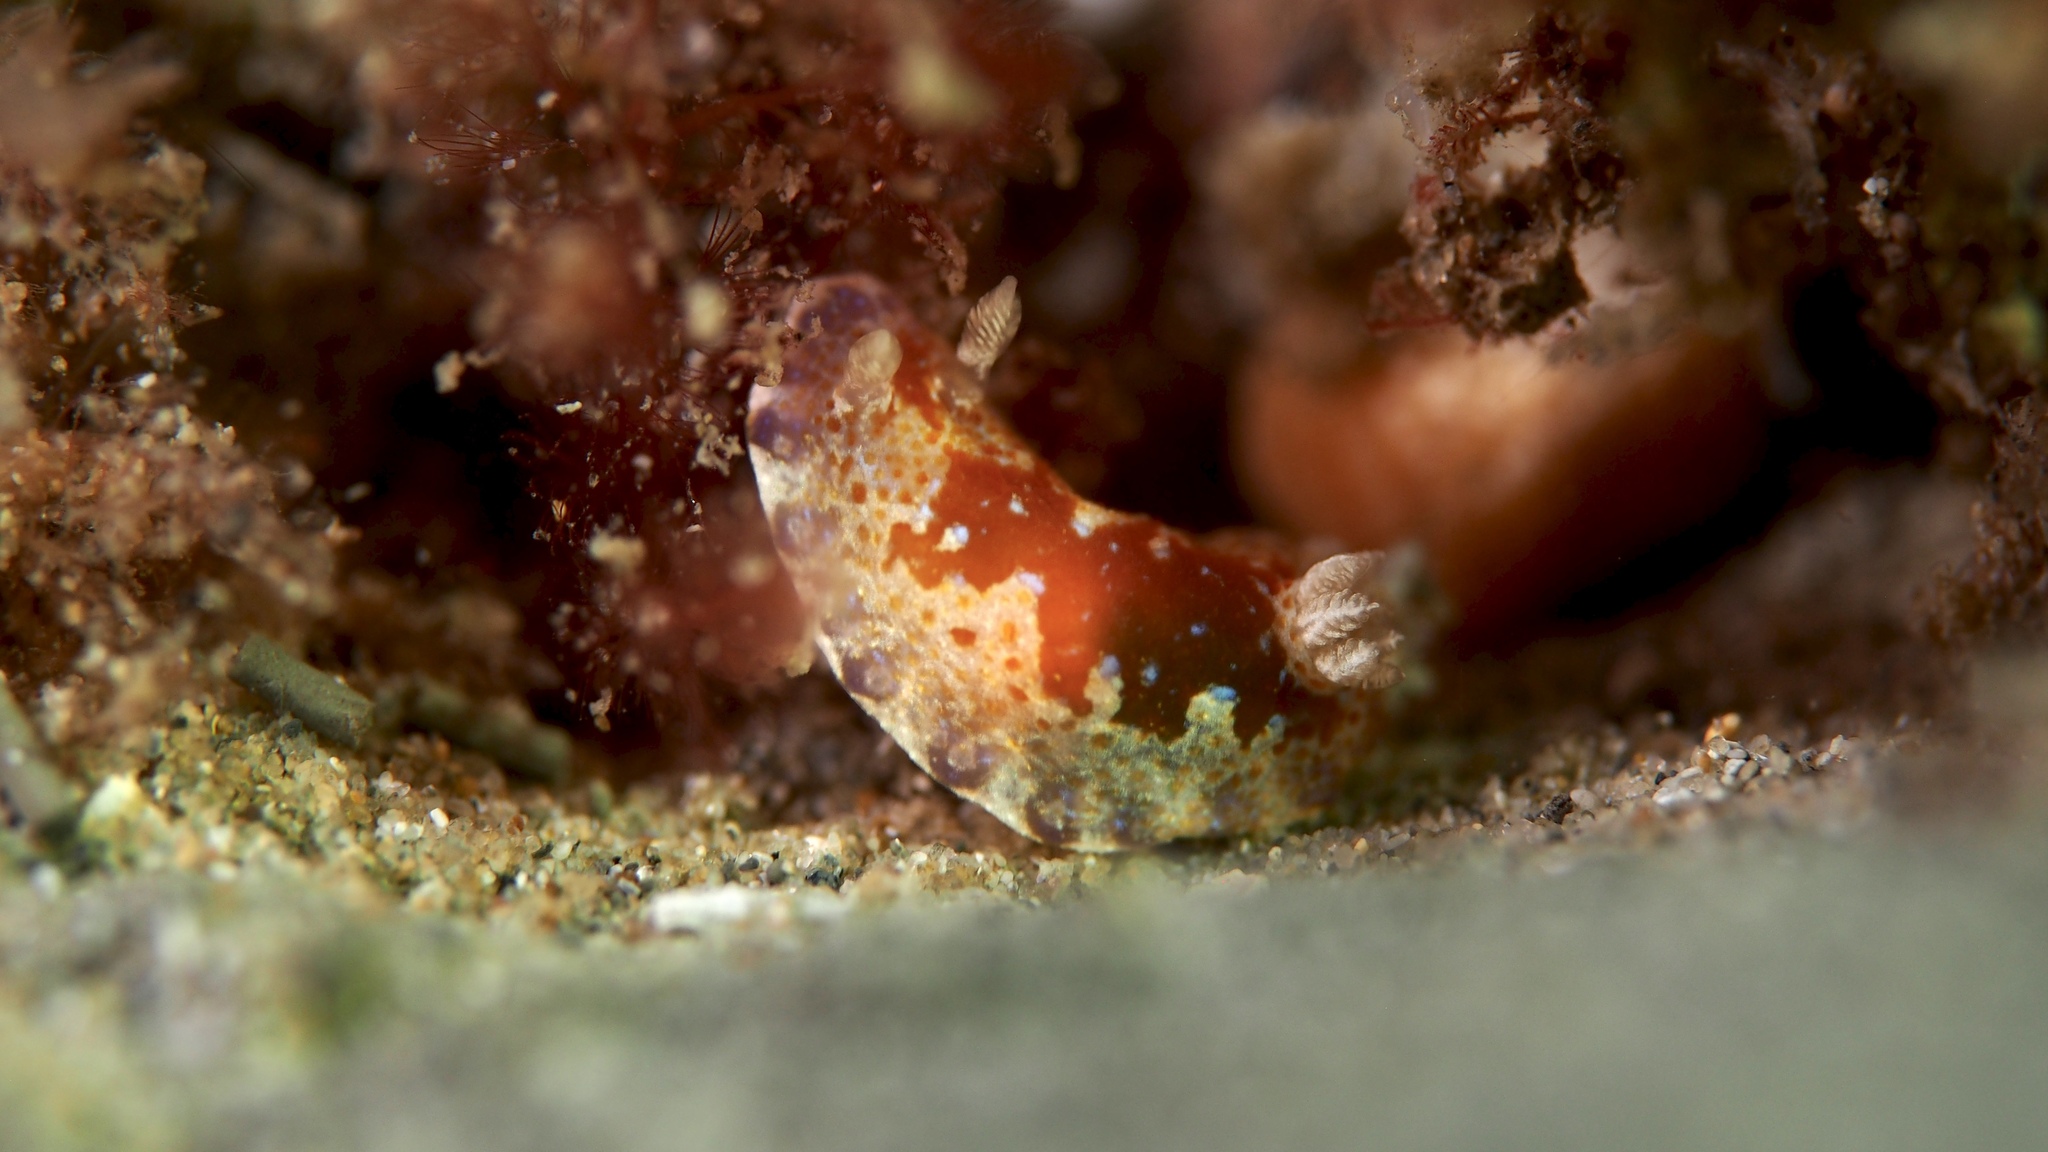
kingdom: Animalia
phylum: Mollusca
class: Gastropoda
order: Nudibranchia
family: Chromodorididae
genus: Chromodoris
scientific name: Chromodoris alternata
